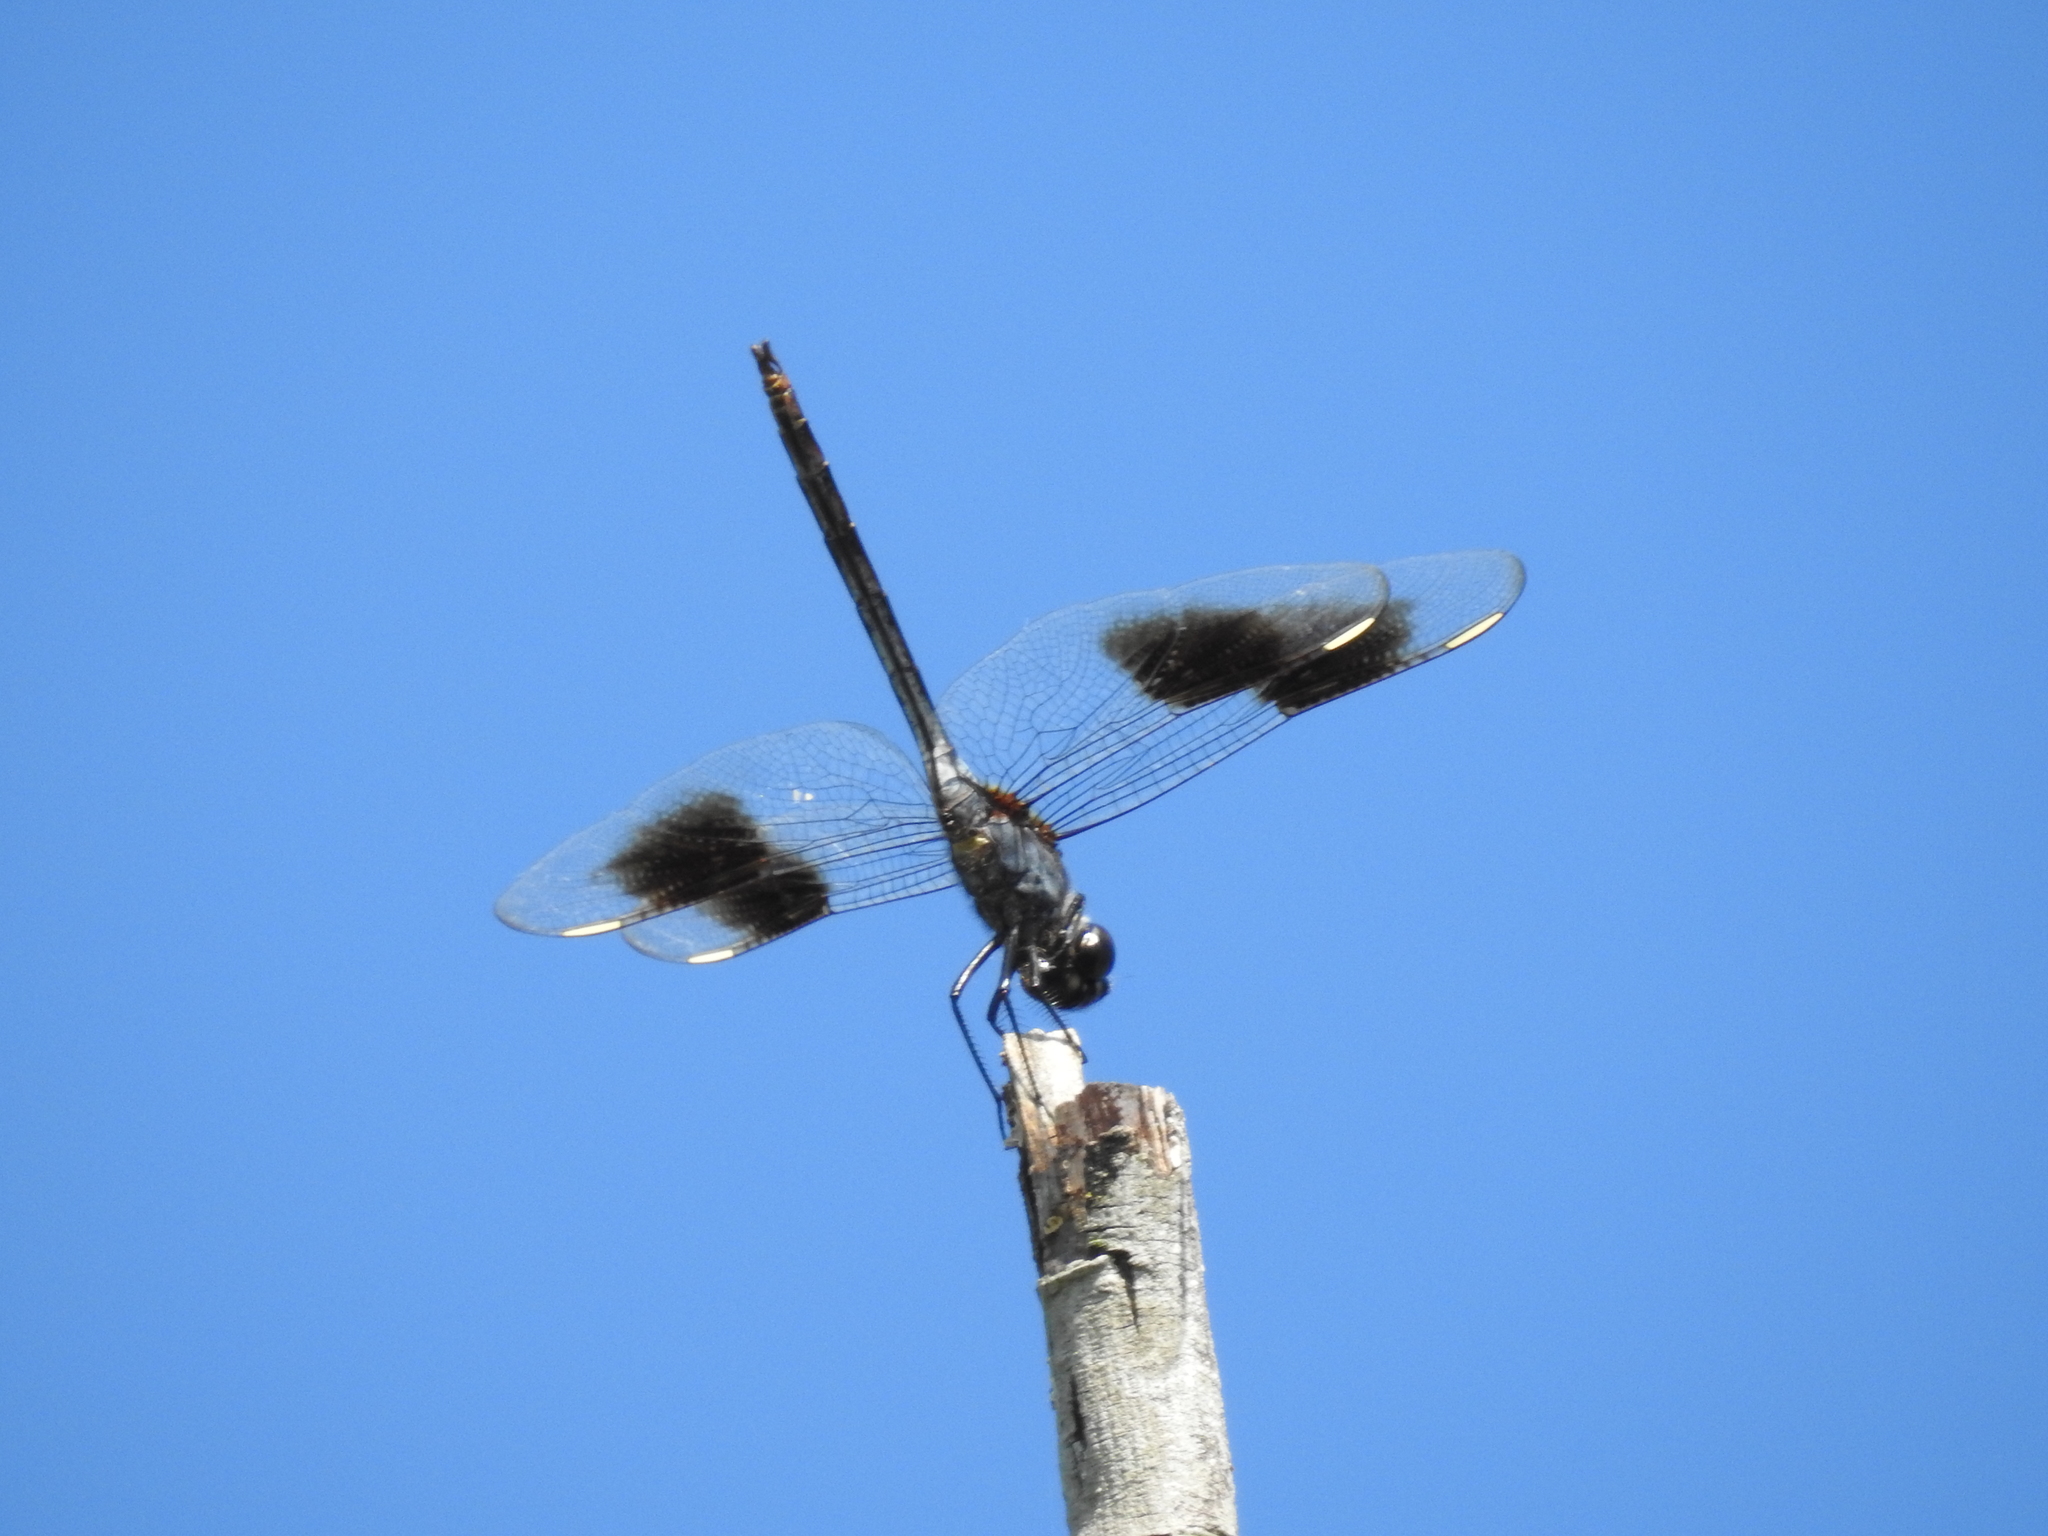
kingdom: Animalia
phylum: Arthropoda
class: Insecta
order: Odonata
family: Libellulidae
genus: Brachymesia
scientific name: Brachymesia gravida
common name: Four-spotted pennant
